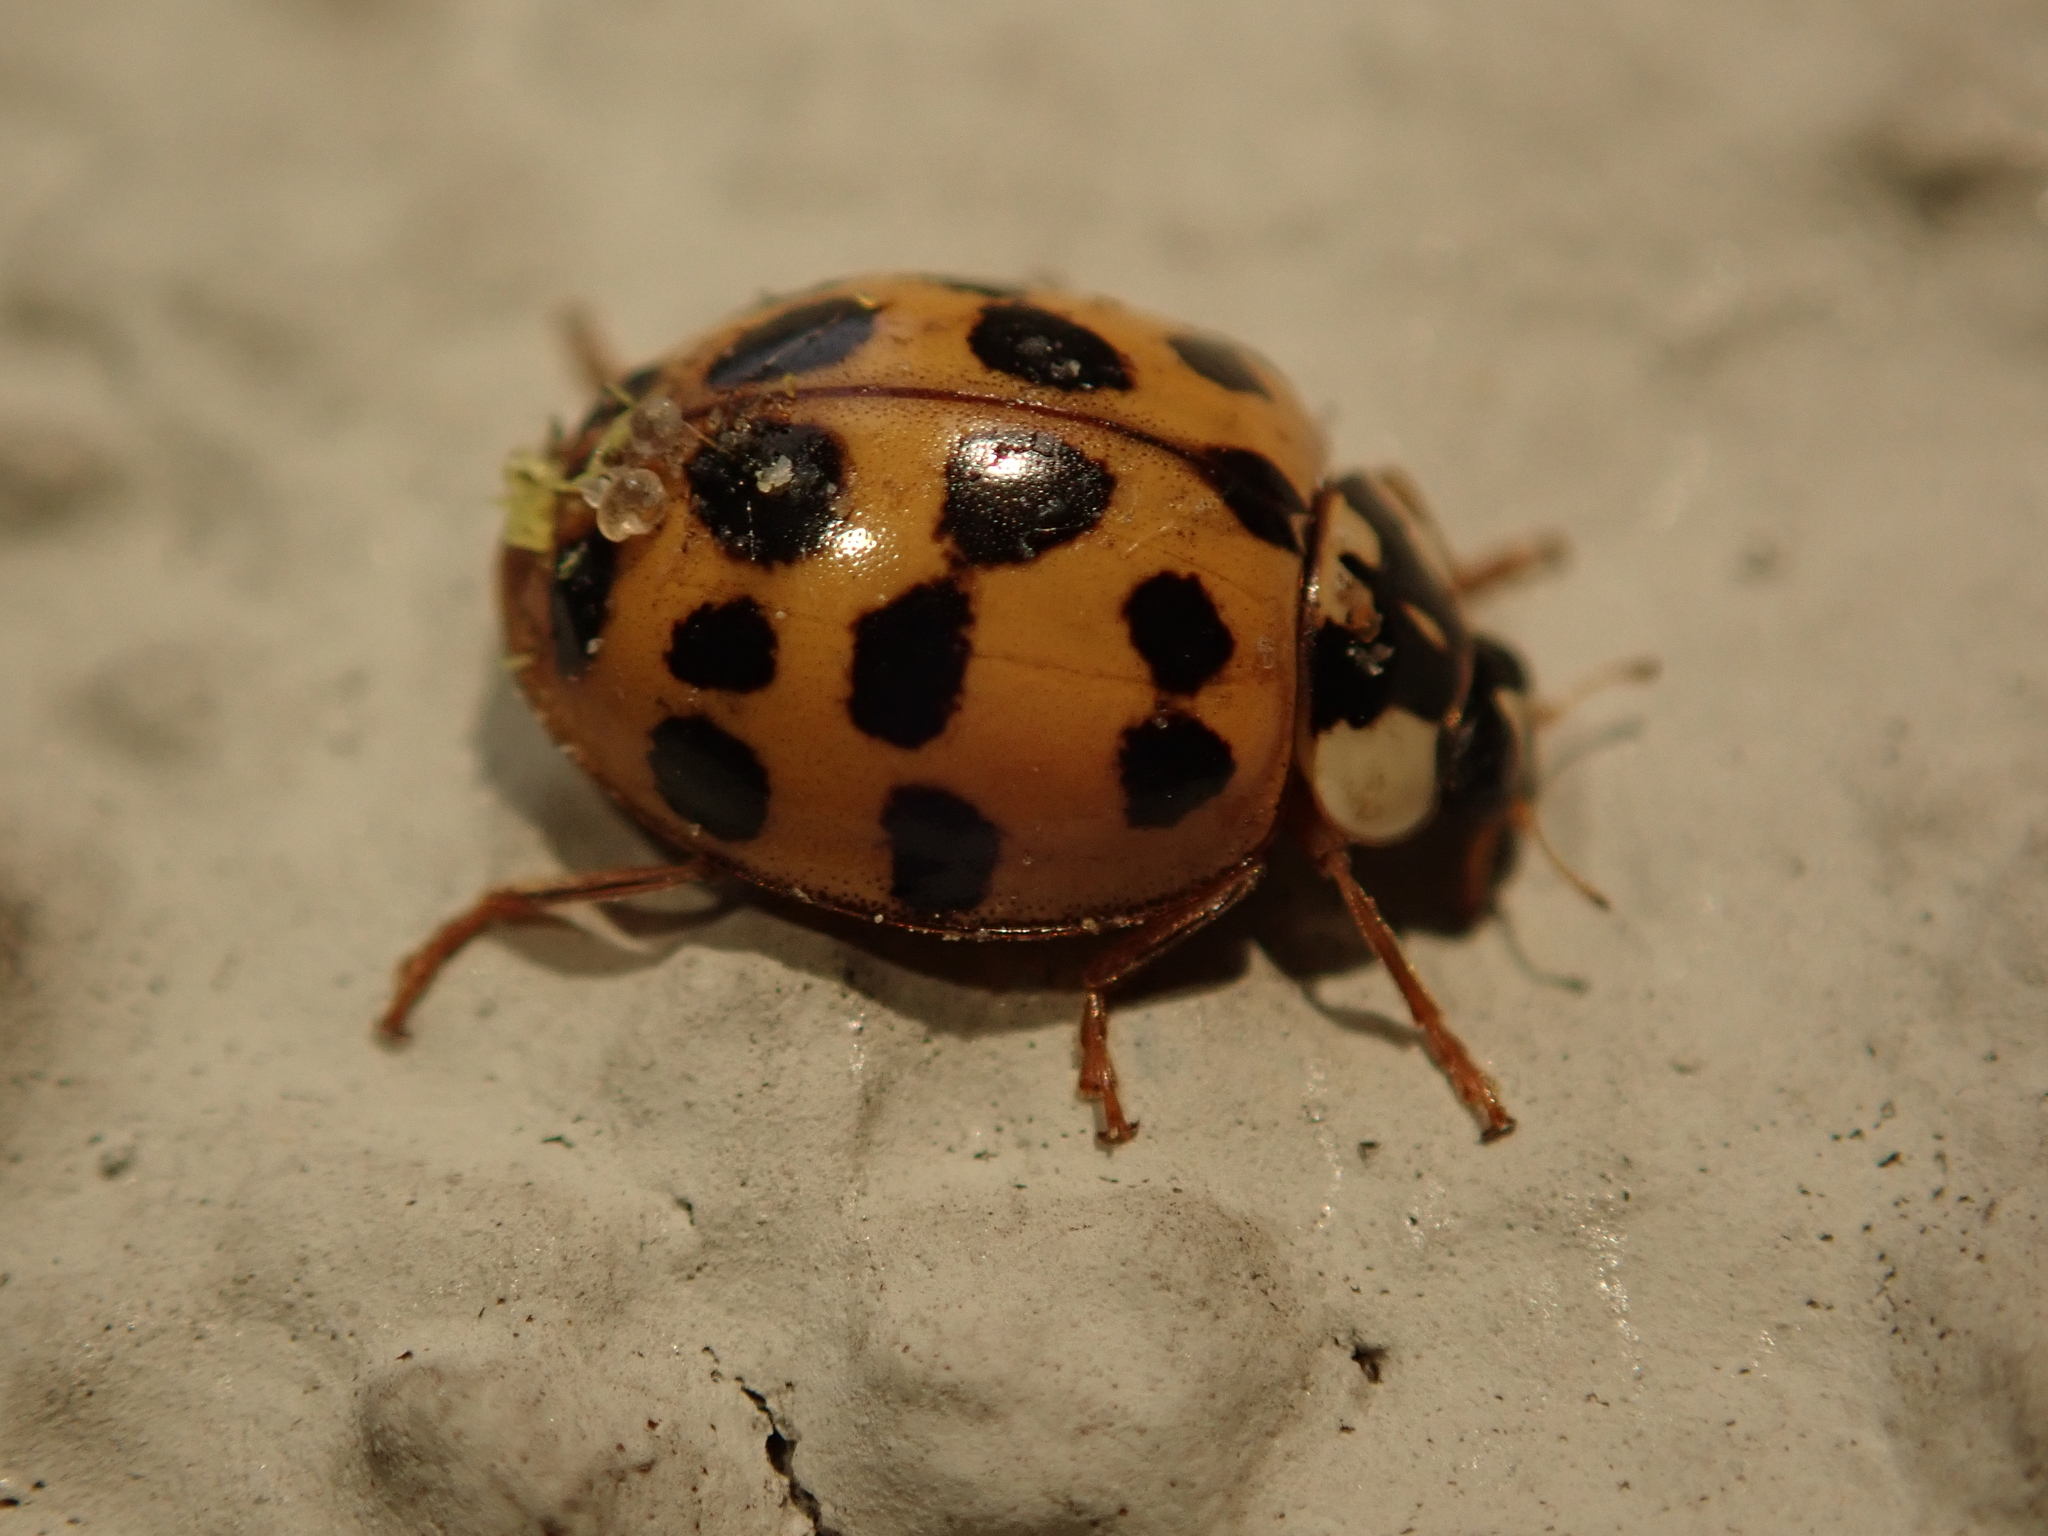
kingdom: Animalia
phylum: Arthropoda
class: Insecta
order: Coleoptera
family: Coccinellidae
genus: Harmonia
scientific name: Harmonia axyridis
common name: Harlequin ladybird
